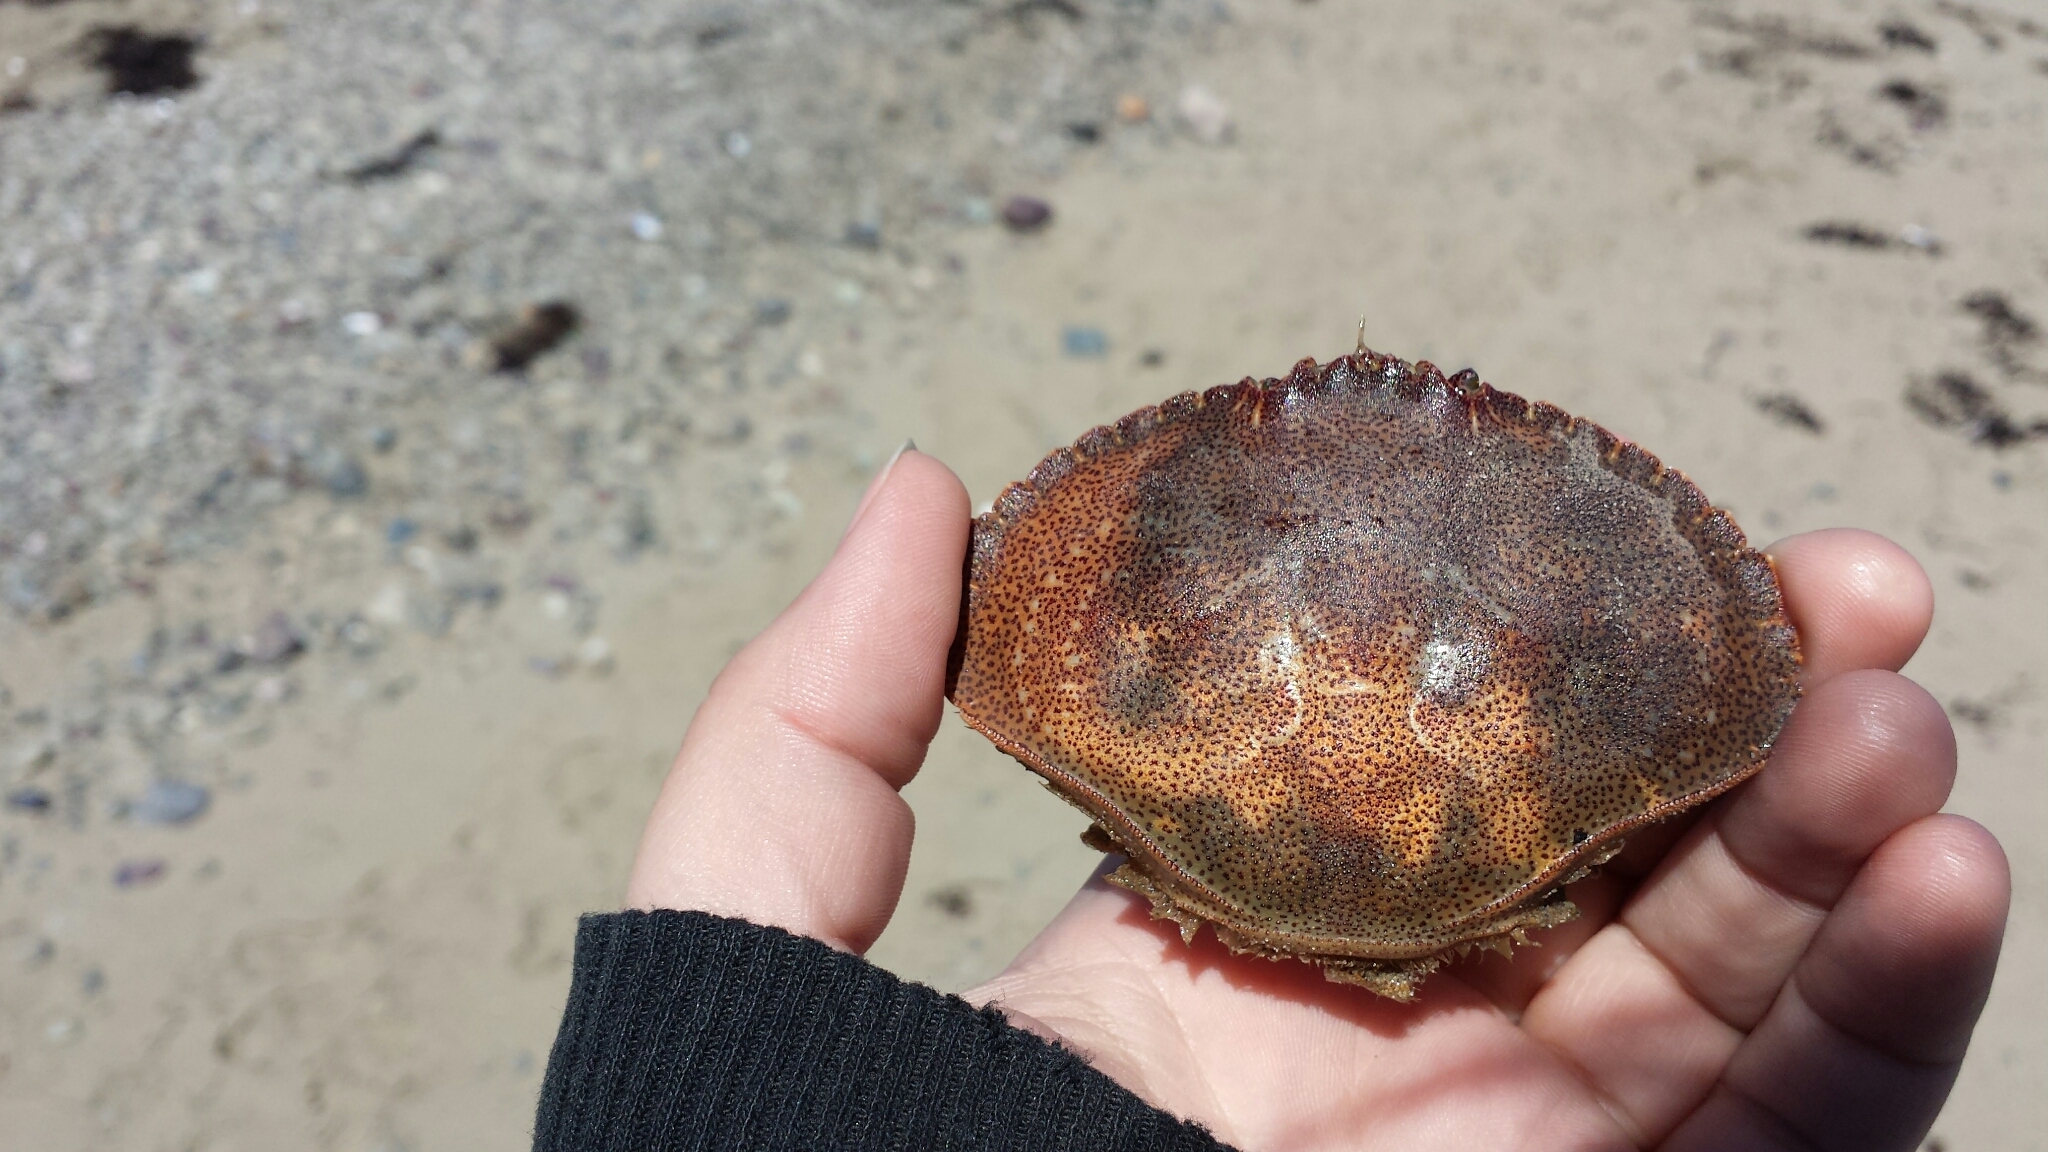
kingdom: Animalia
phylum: Arthropoda
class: Malacostraca
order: Decapoda
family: Cancridae
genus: Cancer
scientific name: Cancer irroratus
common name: Atlantic rock crab
